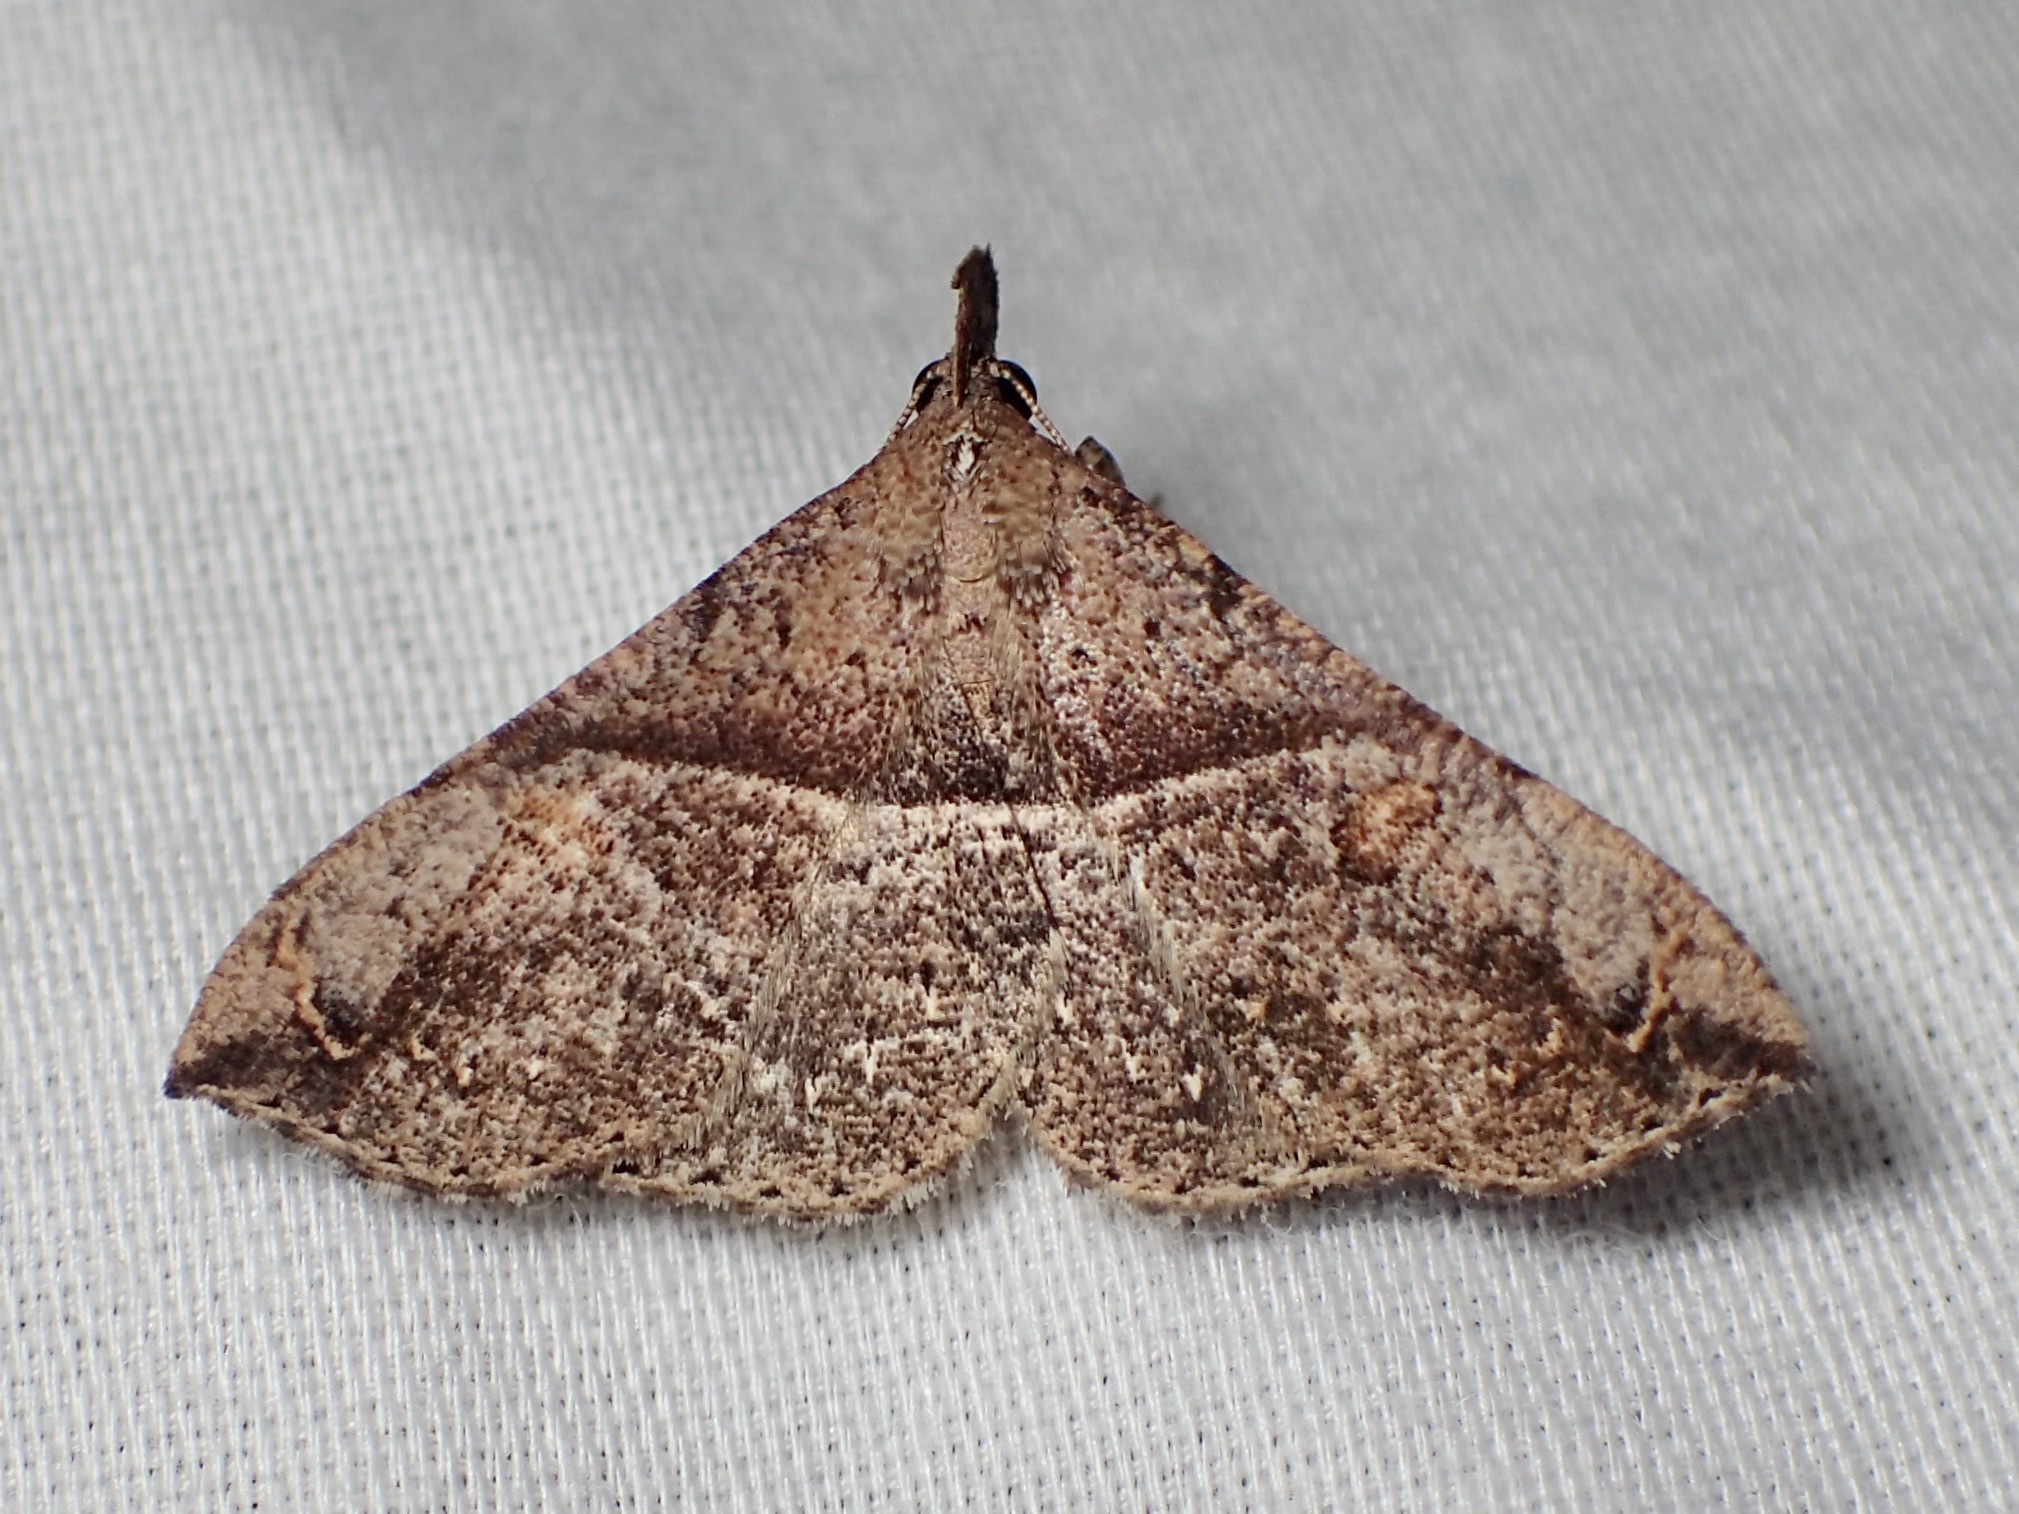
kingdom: Animalia
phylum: Arthropoda
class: Insecta
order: Lepidoptera
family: Erebidae
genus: Squamipalpis
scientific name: Squamipalpis pantoea
